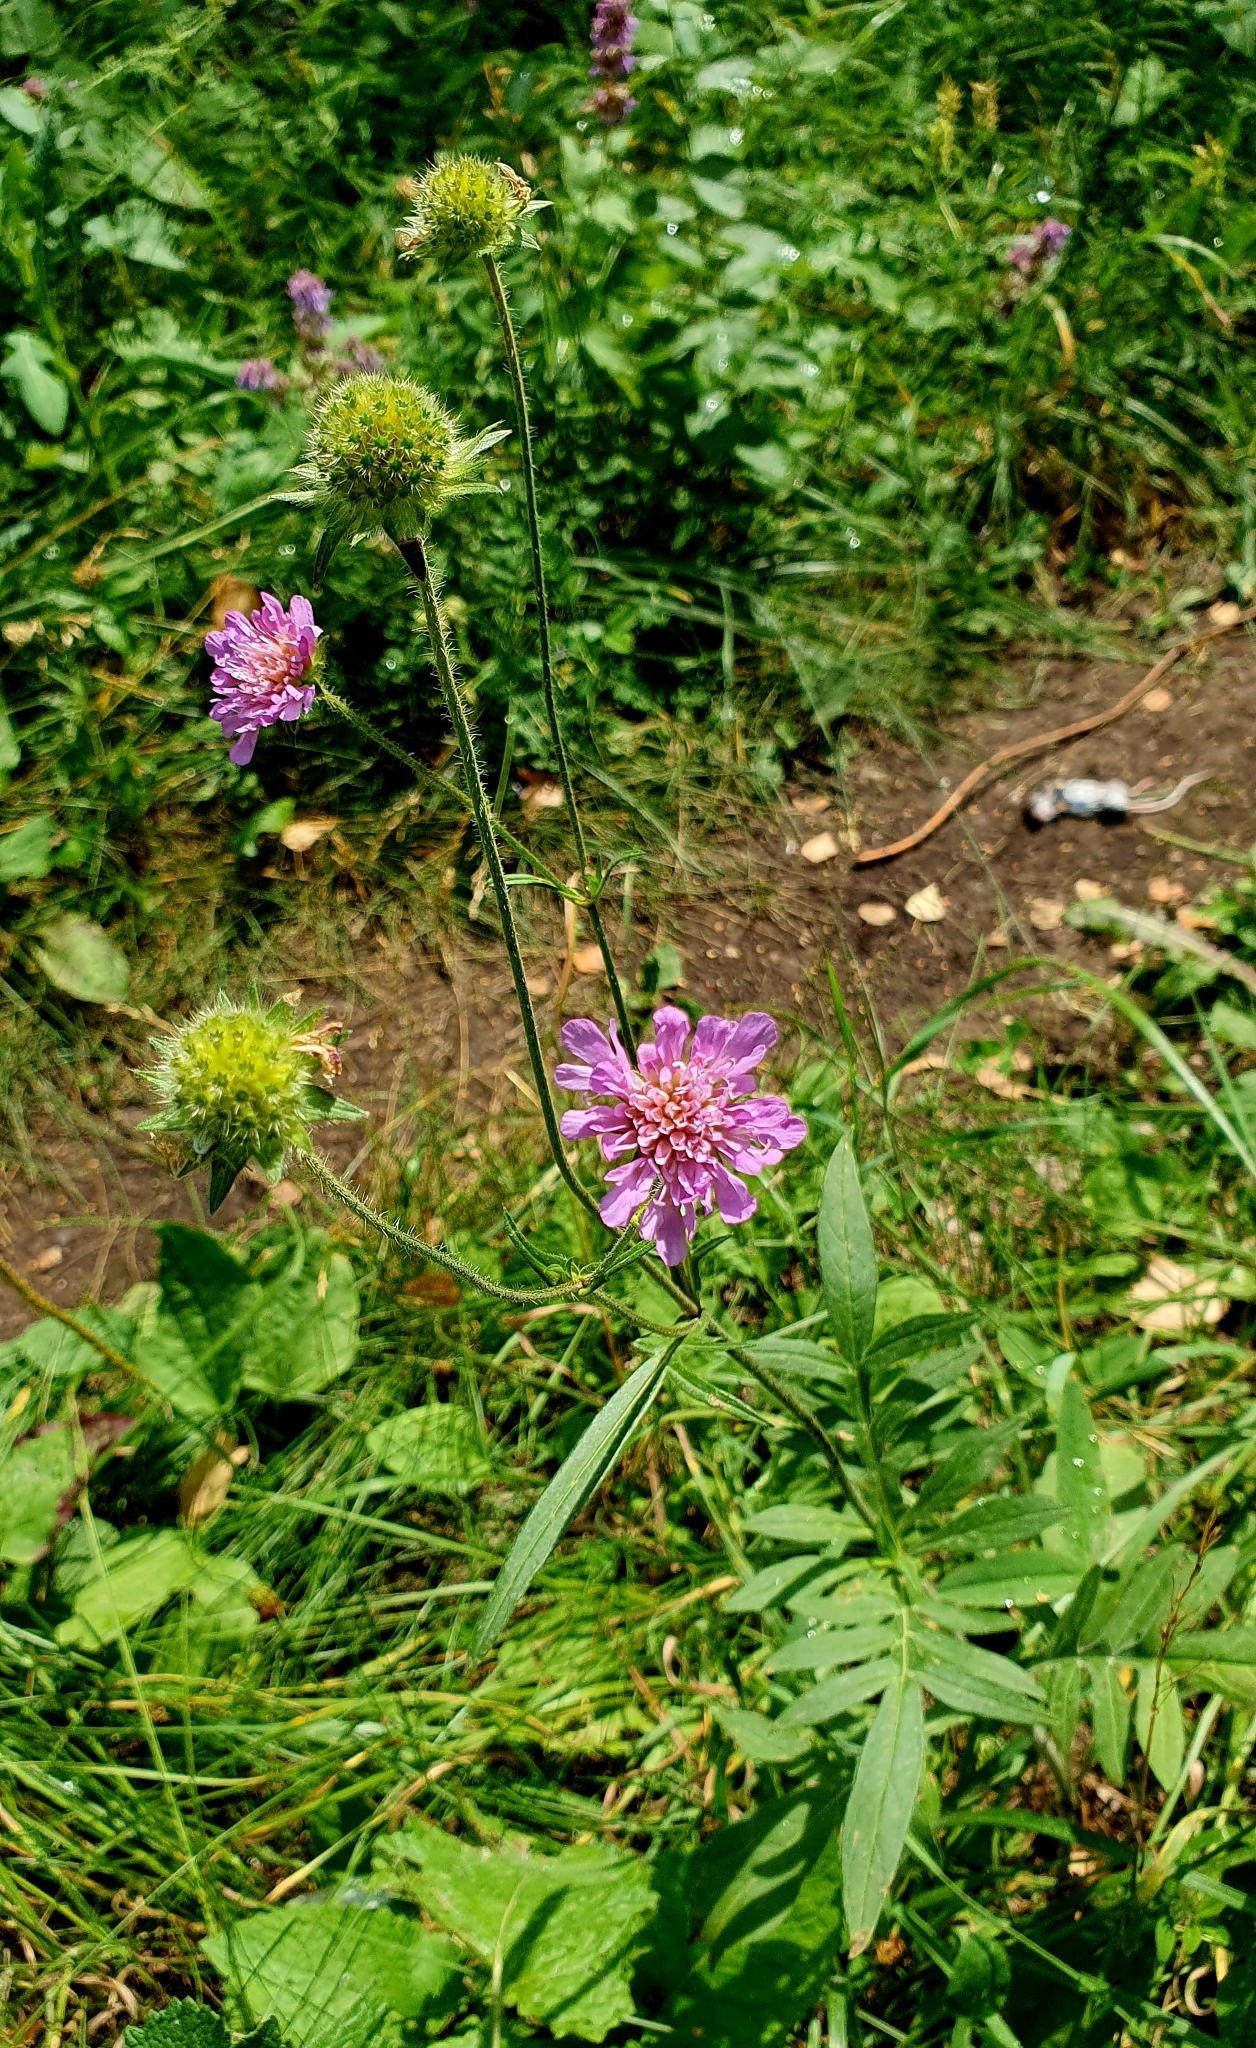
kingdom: Plantae
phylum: Tracheophyta
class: Magnoliopsida
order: Dipsacales
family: Caprifoliaceae
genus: Knautia
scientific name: Knautia arvensis
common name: Field scabiosa
